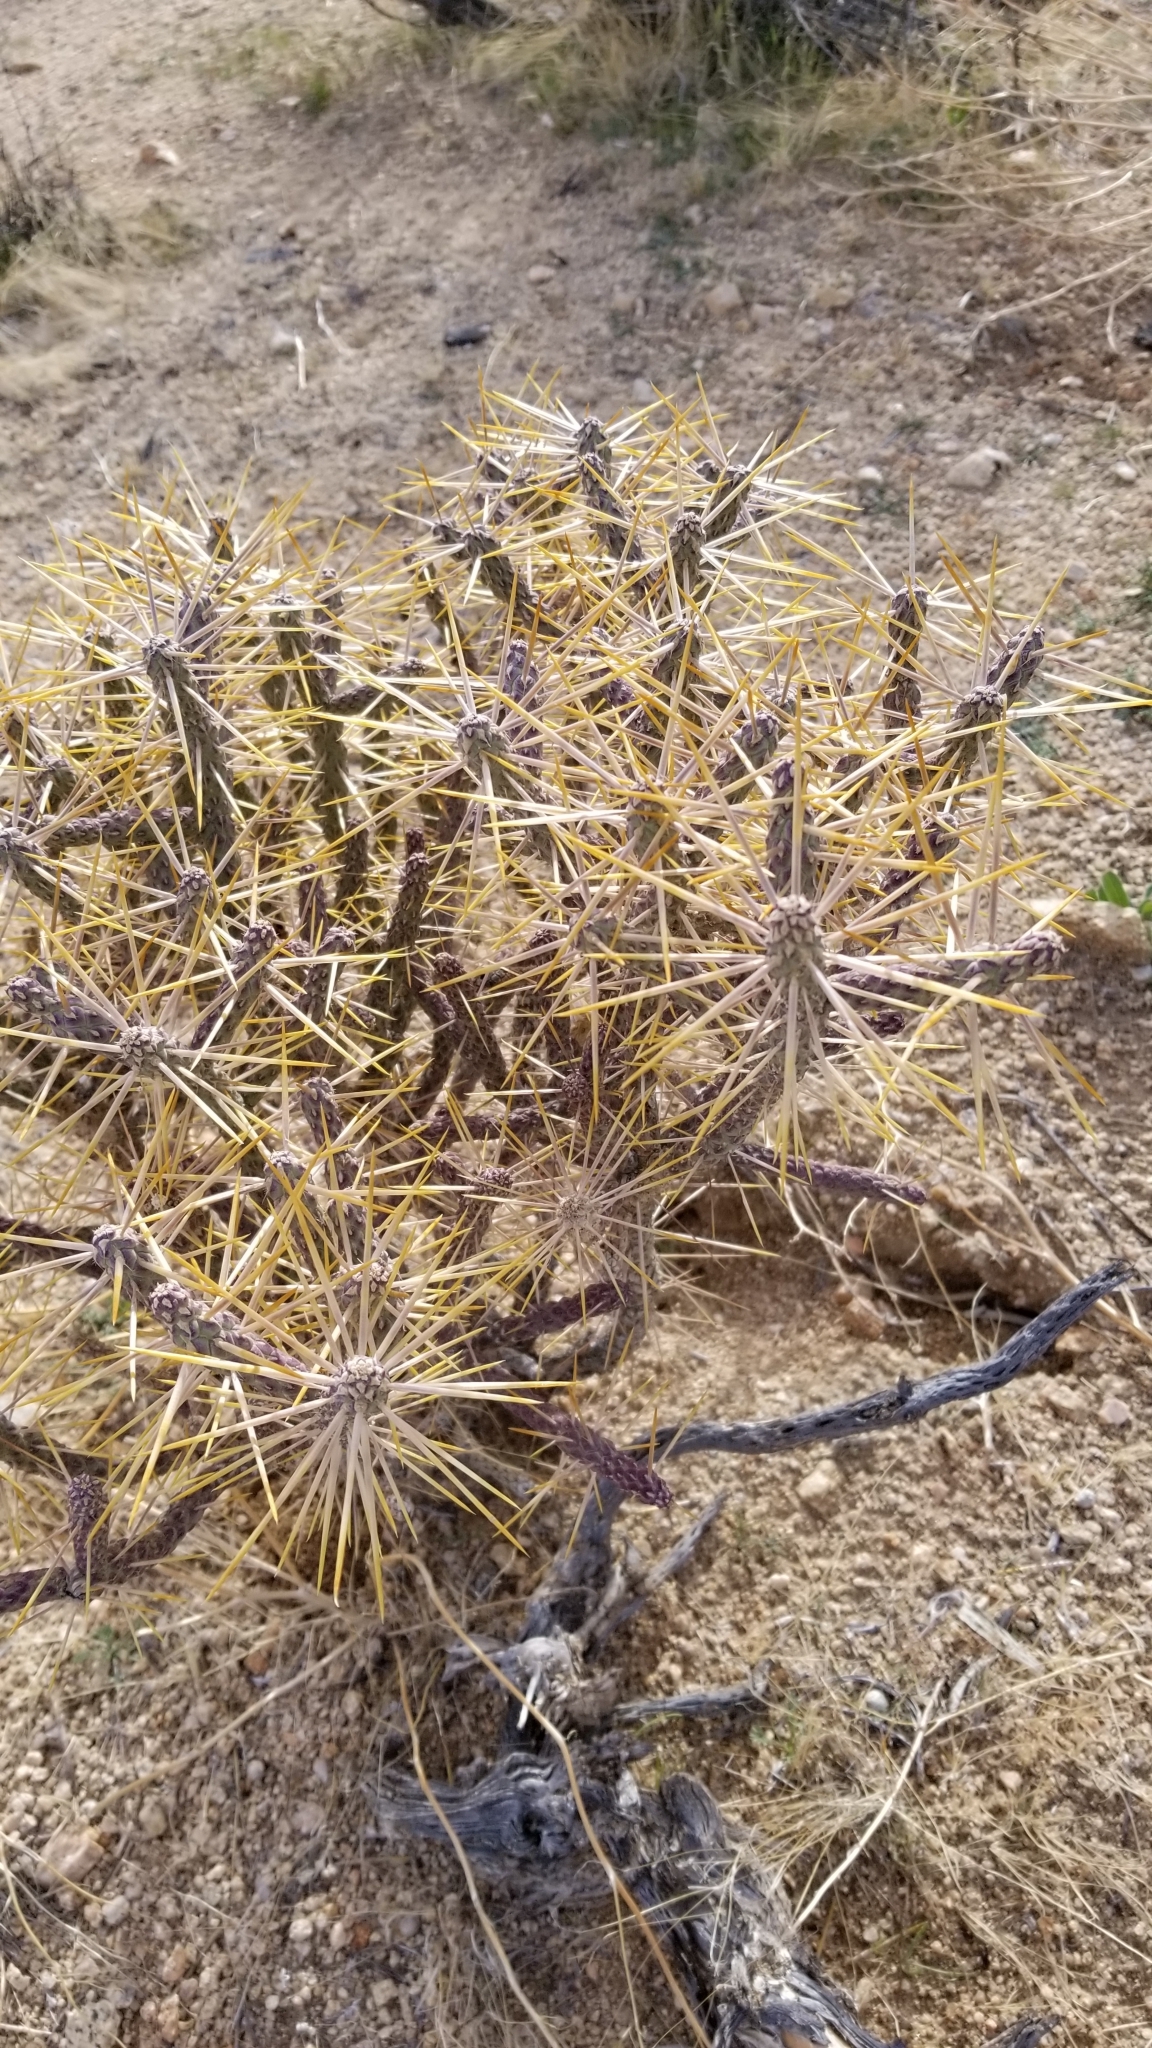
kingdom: Plantae
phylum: Tracheophyta
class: Magnoliopsida
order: Caryophyllales
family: Cactaceae
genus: Cylindropuntia
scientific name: Cylindropuntia ramosissima
